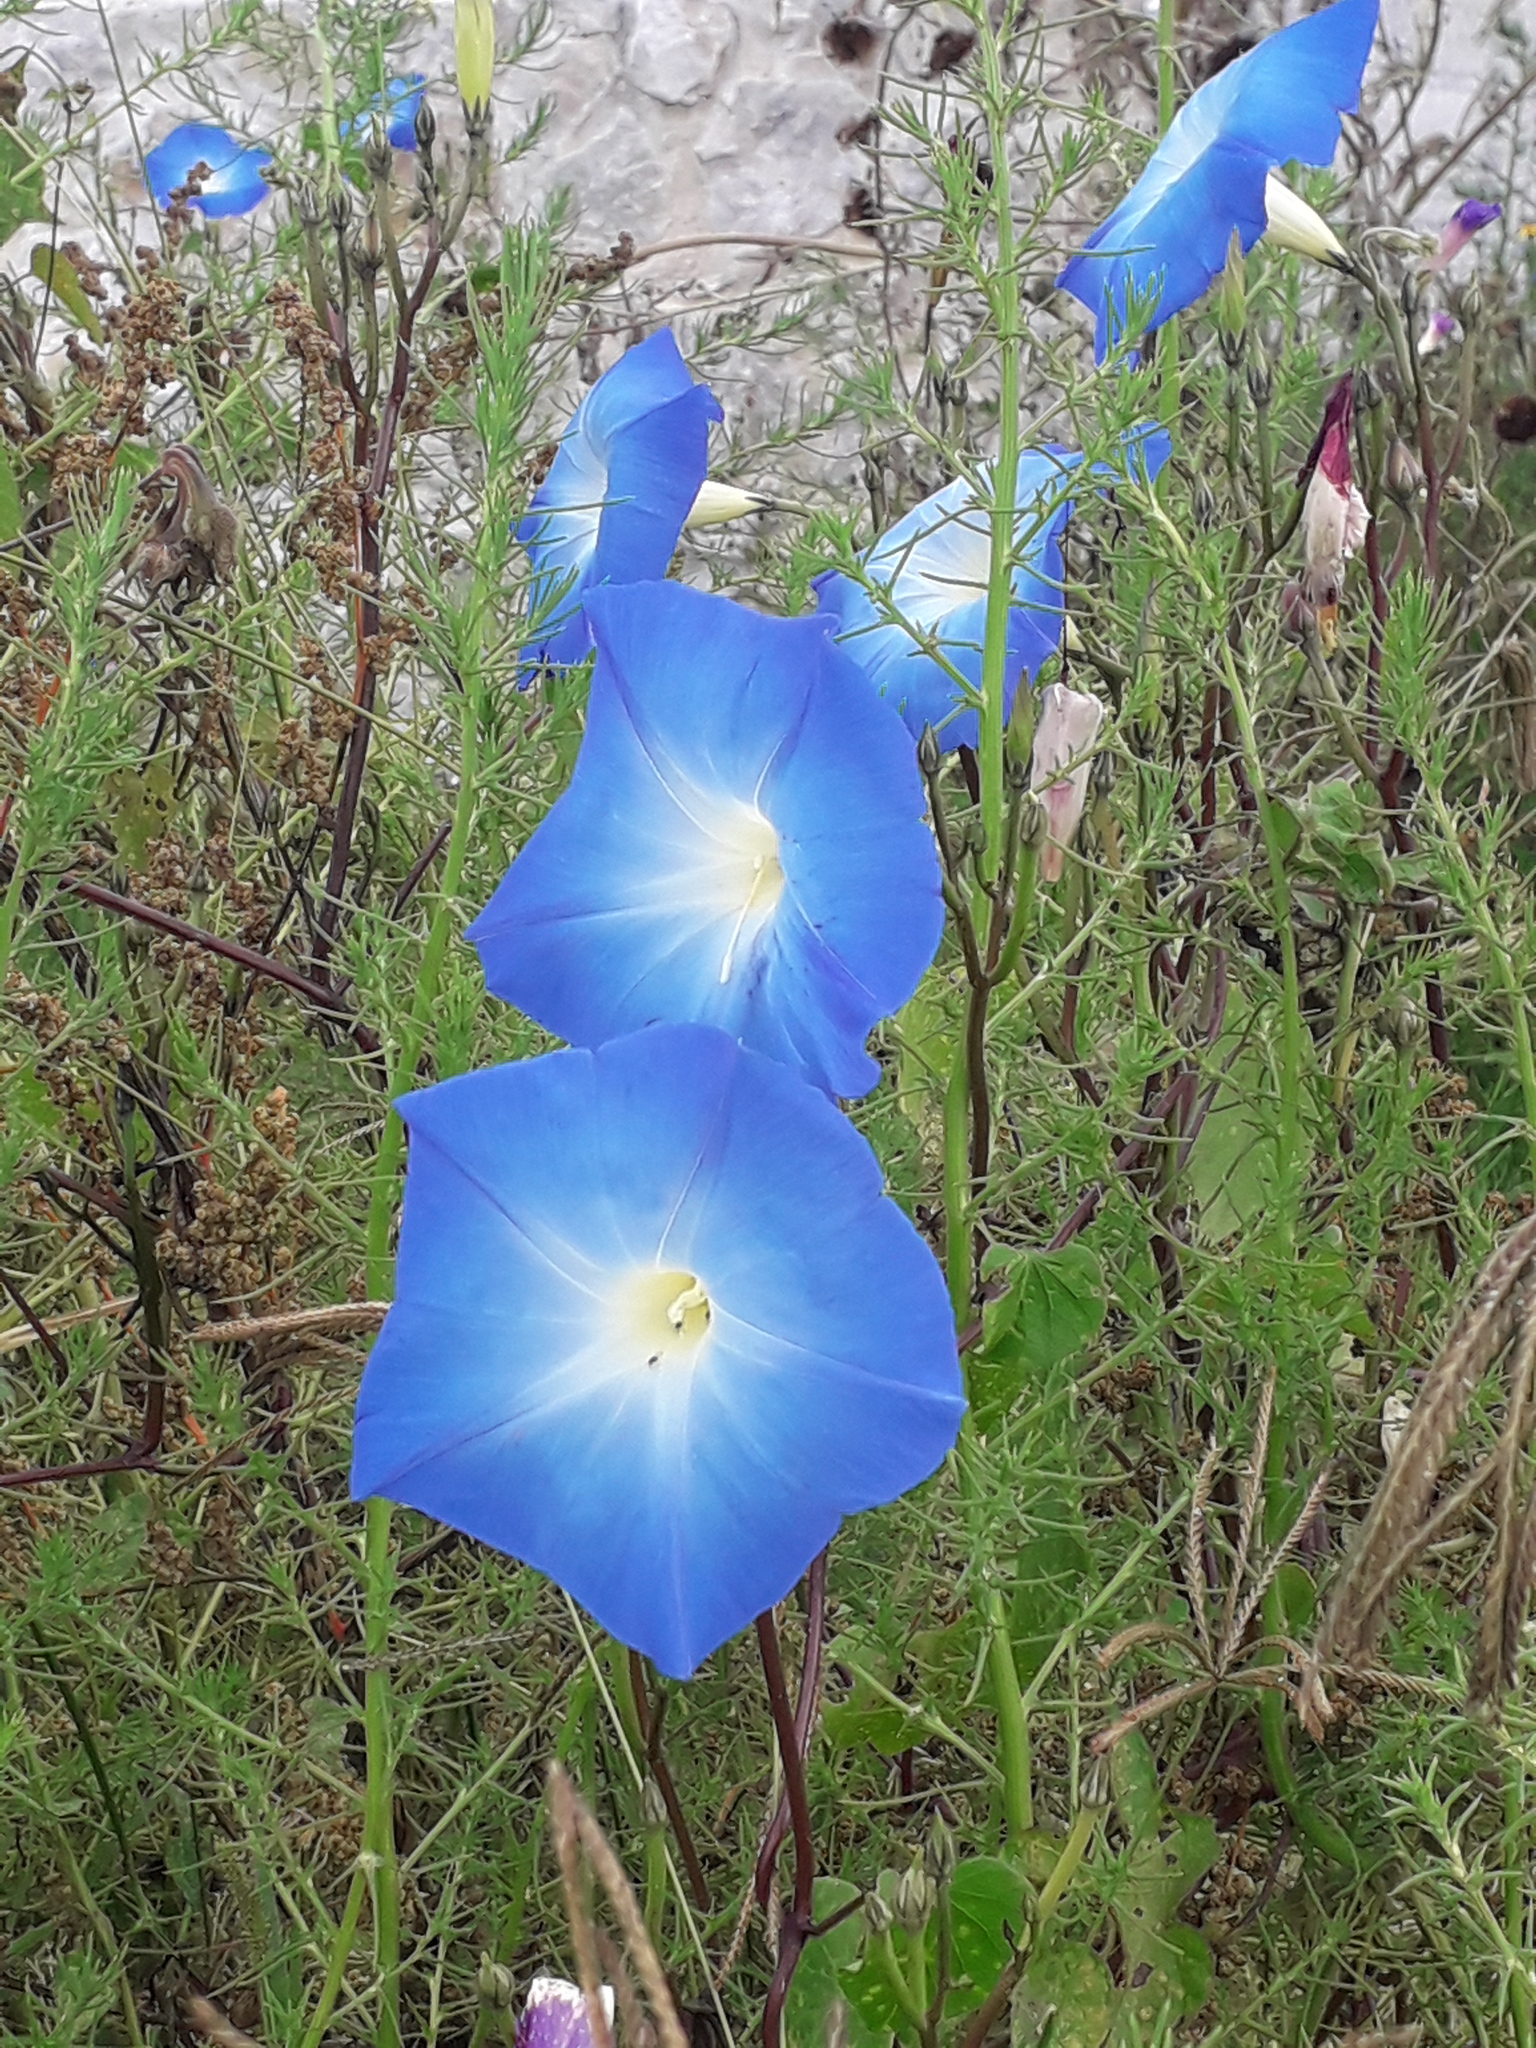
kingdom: Plantae
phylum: Tracheophyta
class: Magnoliopsida
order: Solanales
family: Convolvulaceae
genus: Ipomoea
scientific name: Ipomoea tricolor
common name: Morning-glory
